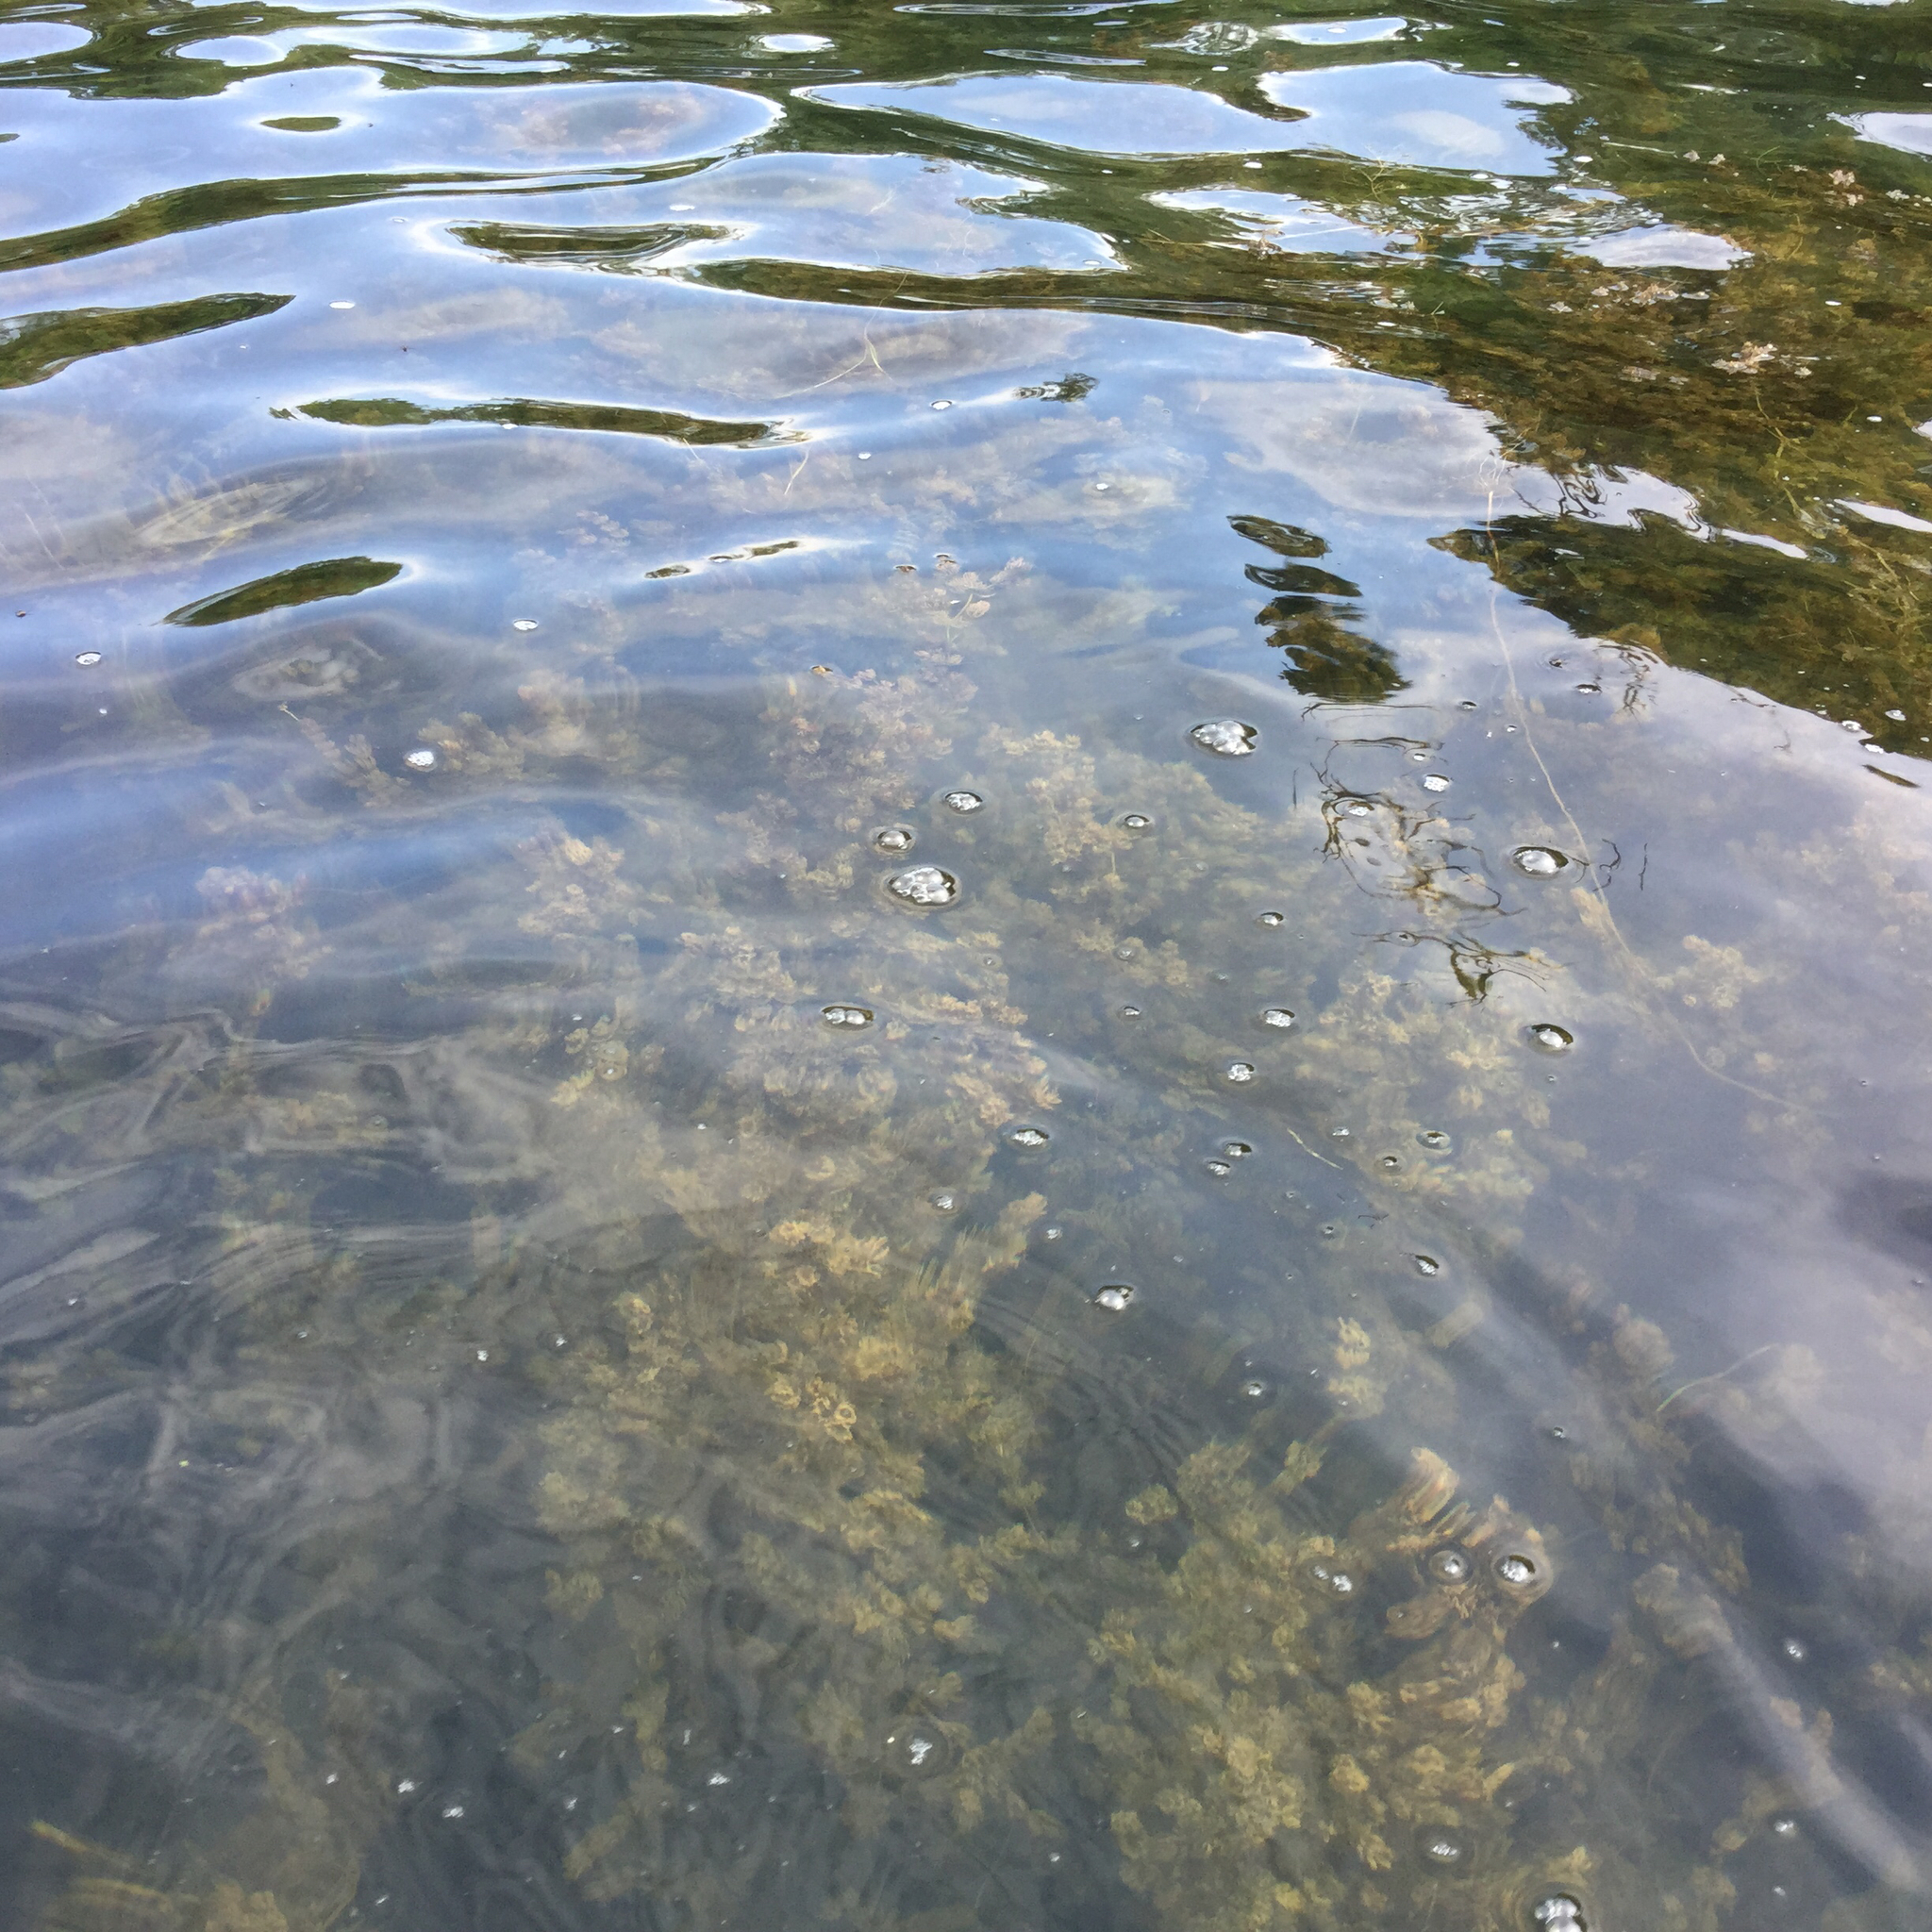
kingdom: Plantae
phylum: Tracheophyta
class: Magnoliopsida
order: Ceratophyllales
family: Ceratophyllaceae
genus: Ceratophyllum
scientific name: Ceratophyllum demersum
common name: Rigid hornwort
